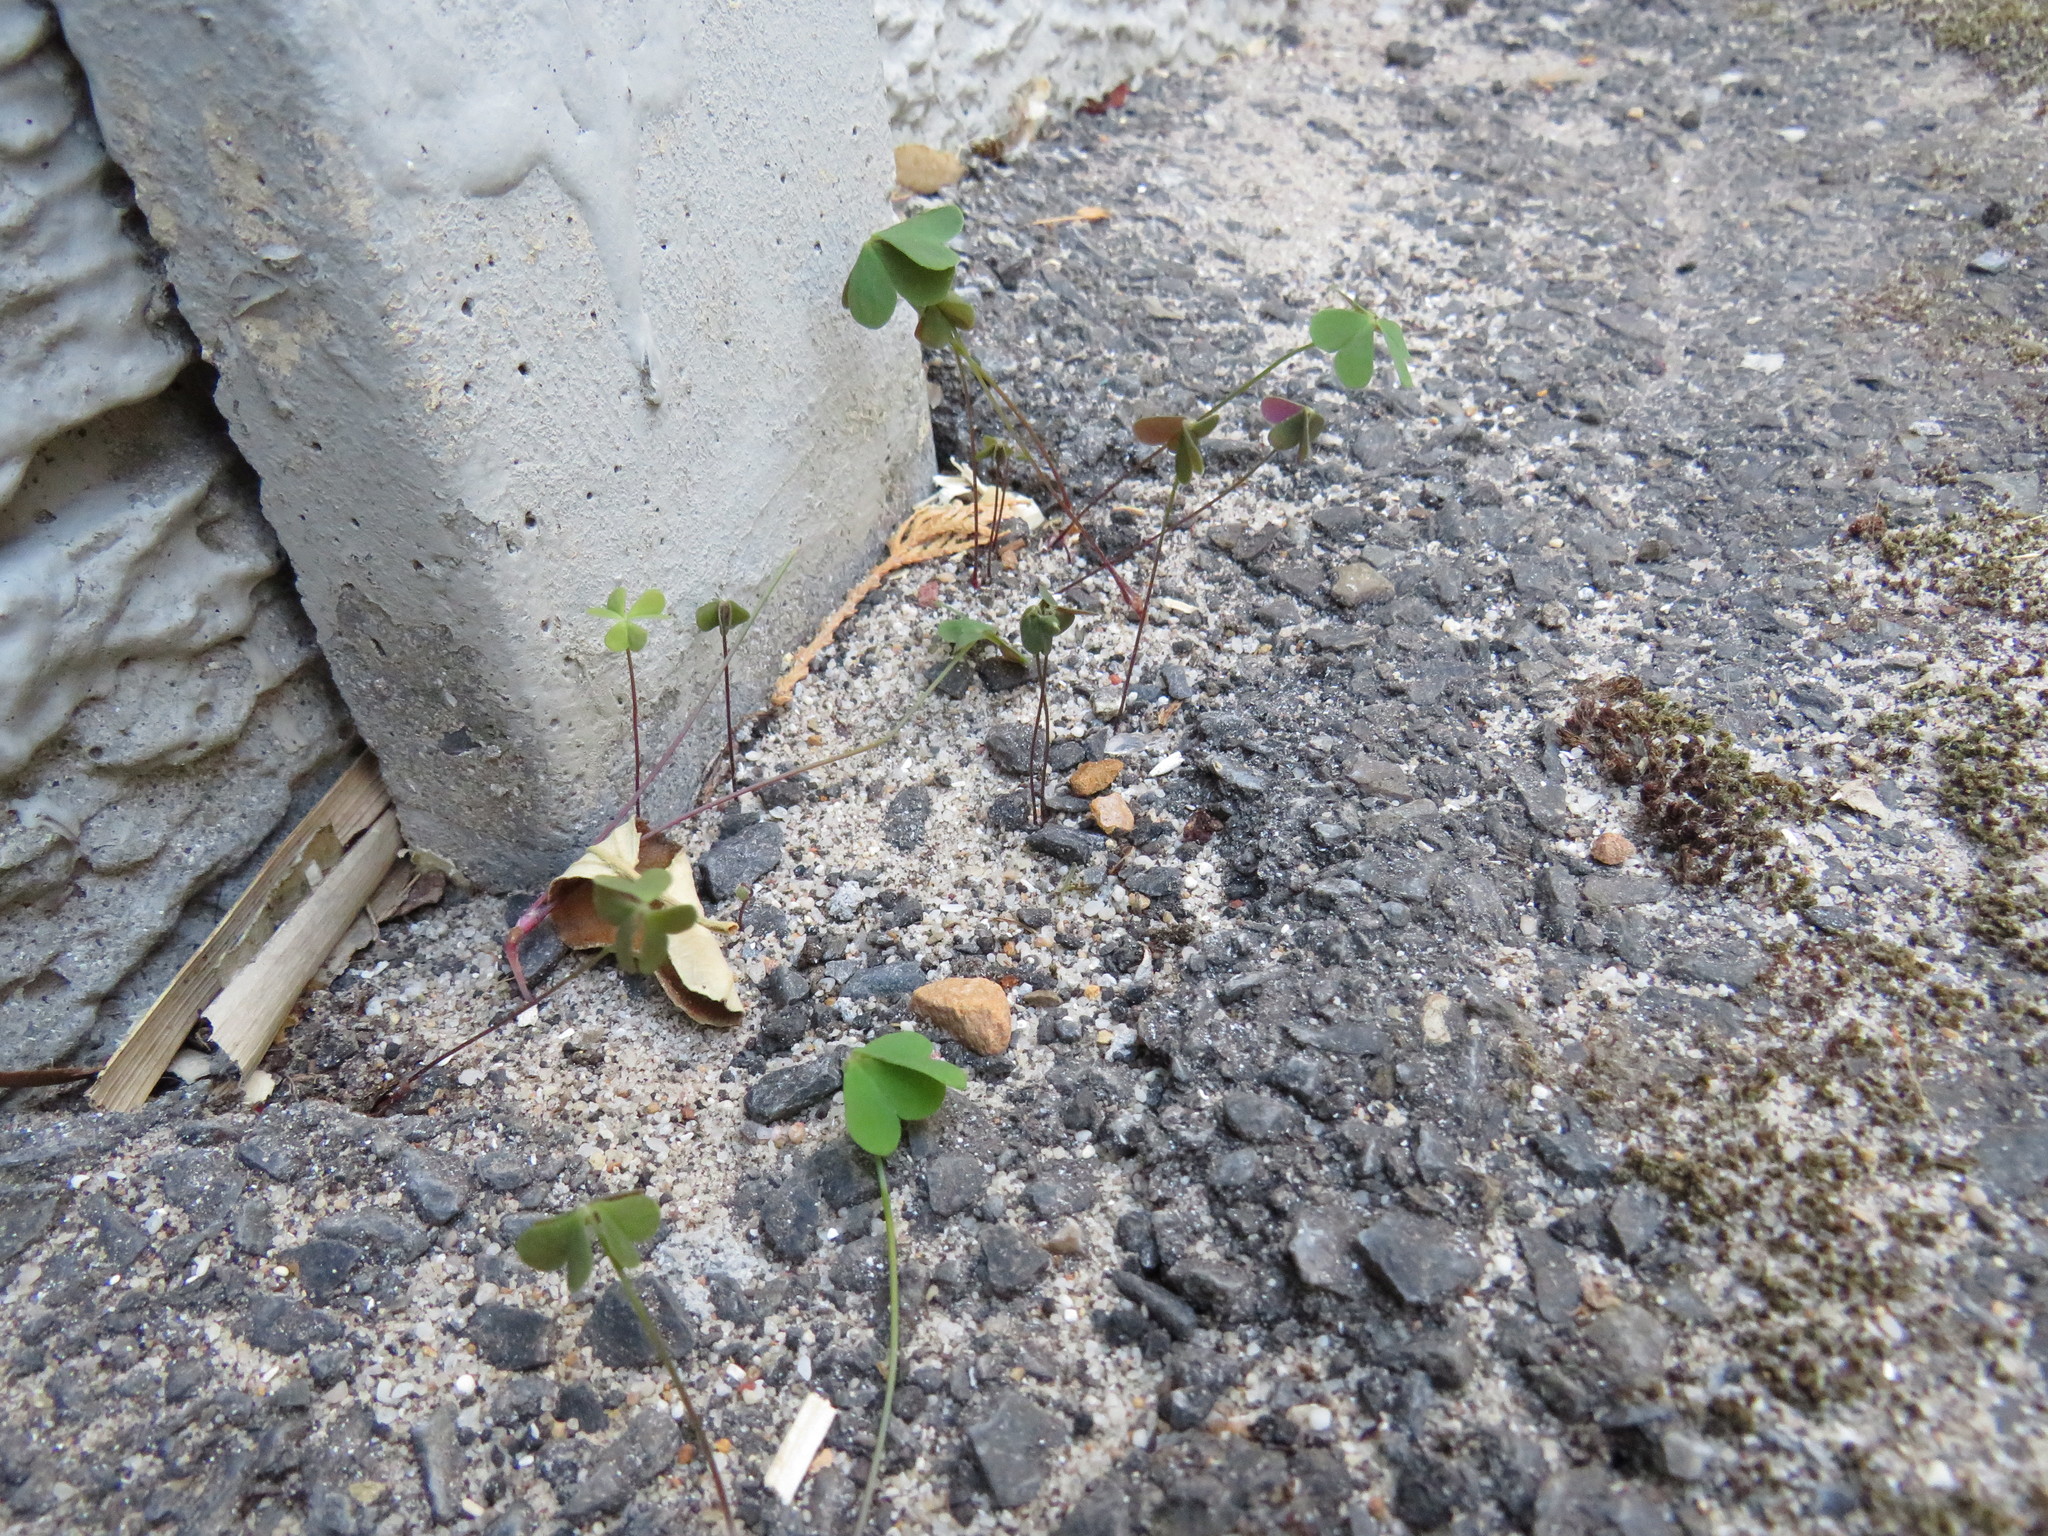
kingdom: Plantae
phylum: Tracheophyta
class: Magnoliopsida
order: Oxalidales
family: Oxalidaceae
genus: Oxalis
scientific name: Oxalis caprina
